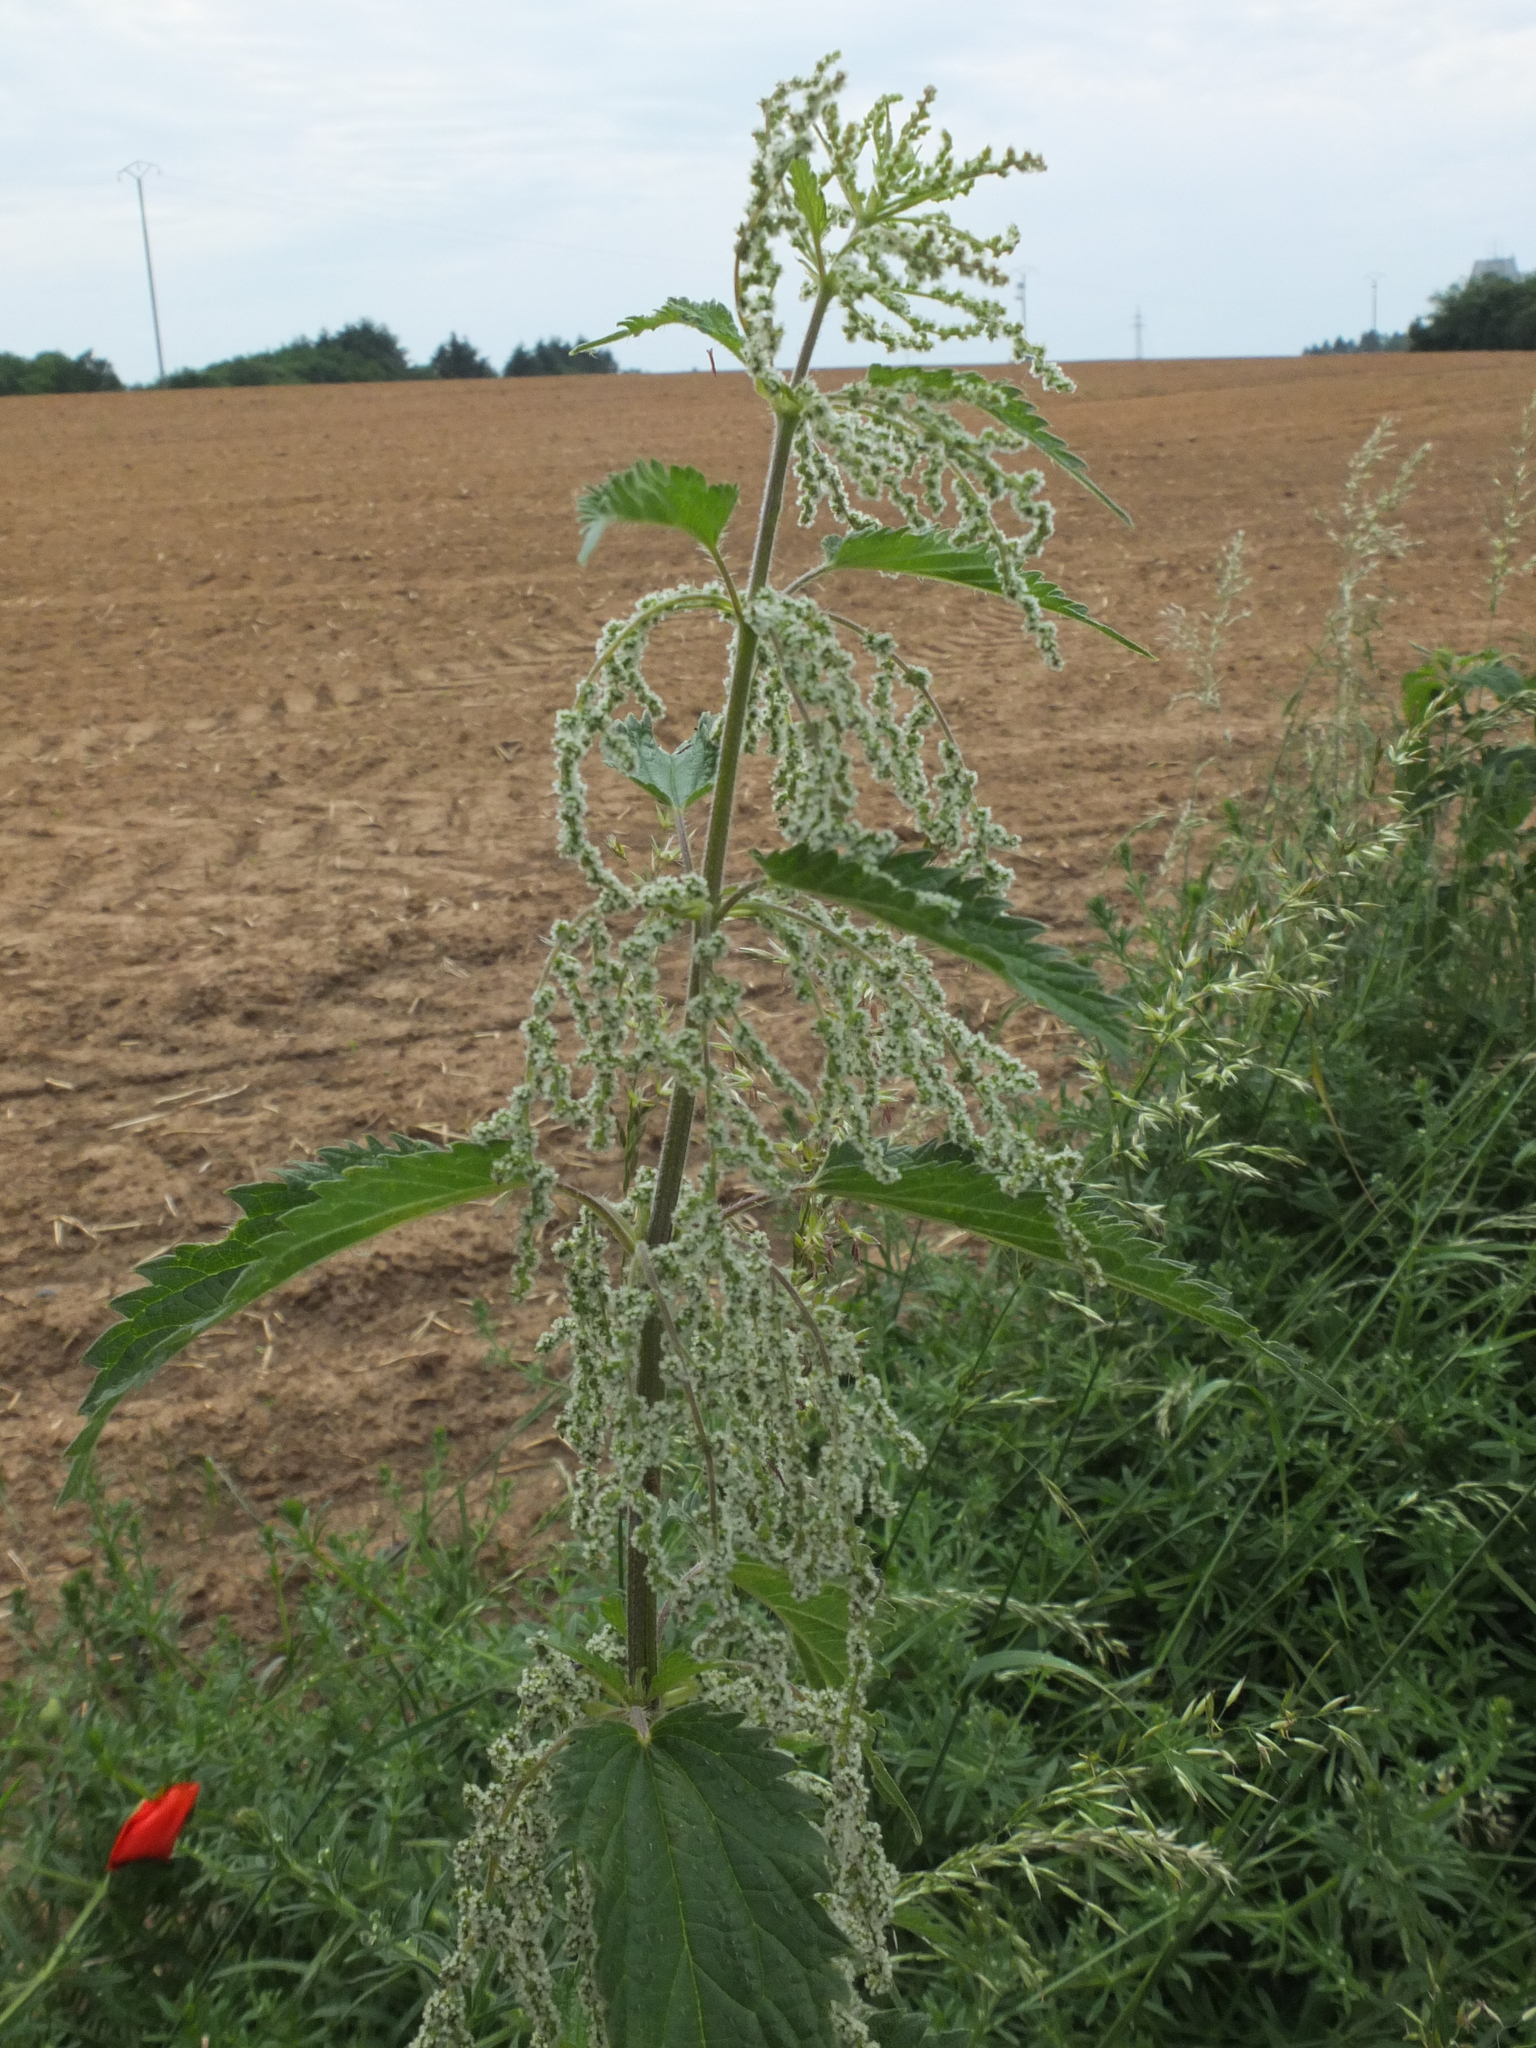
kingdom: Plantae
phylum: Tracheophyta
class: Magnoliopsida
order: Rosales
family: Urticaceae
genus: Urtica
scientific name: Urtica dioica
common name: Common nettle
